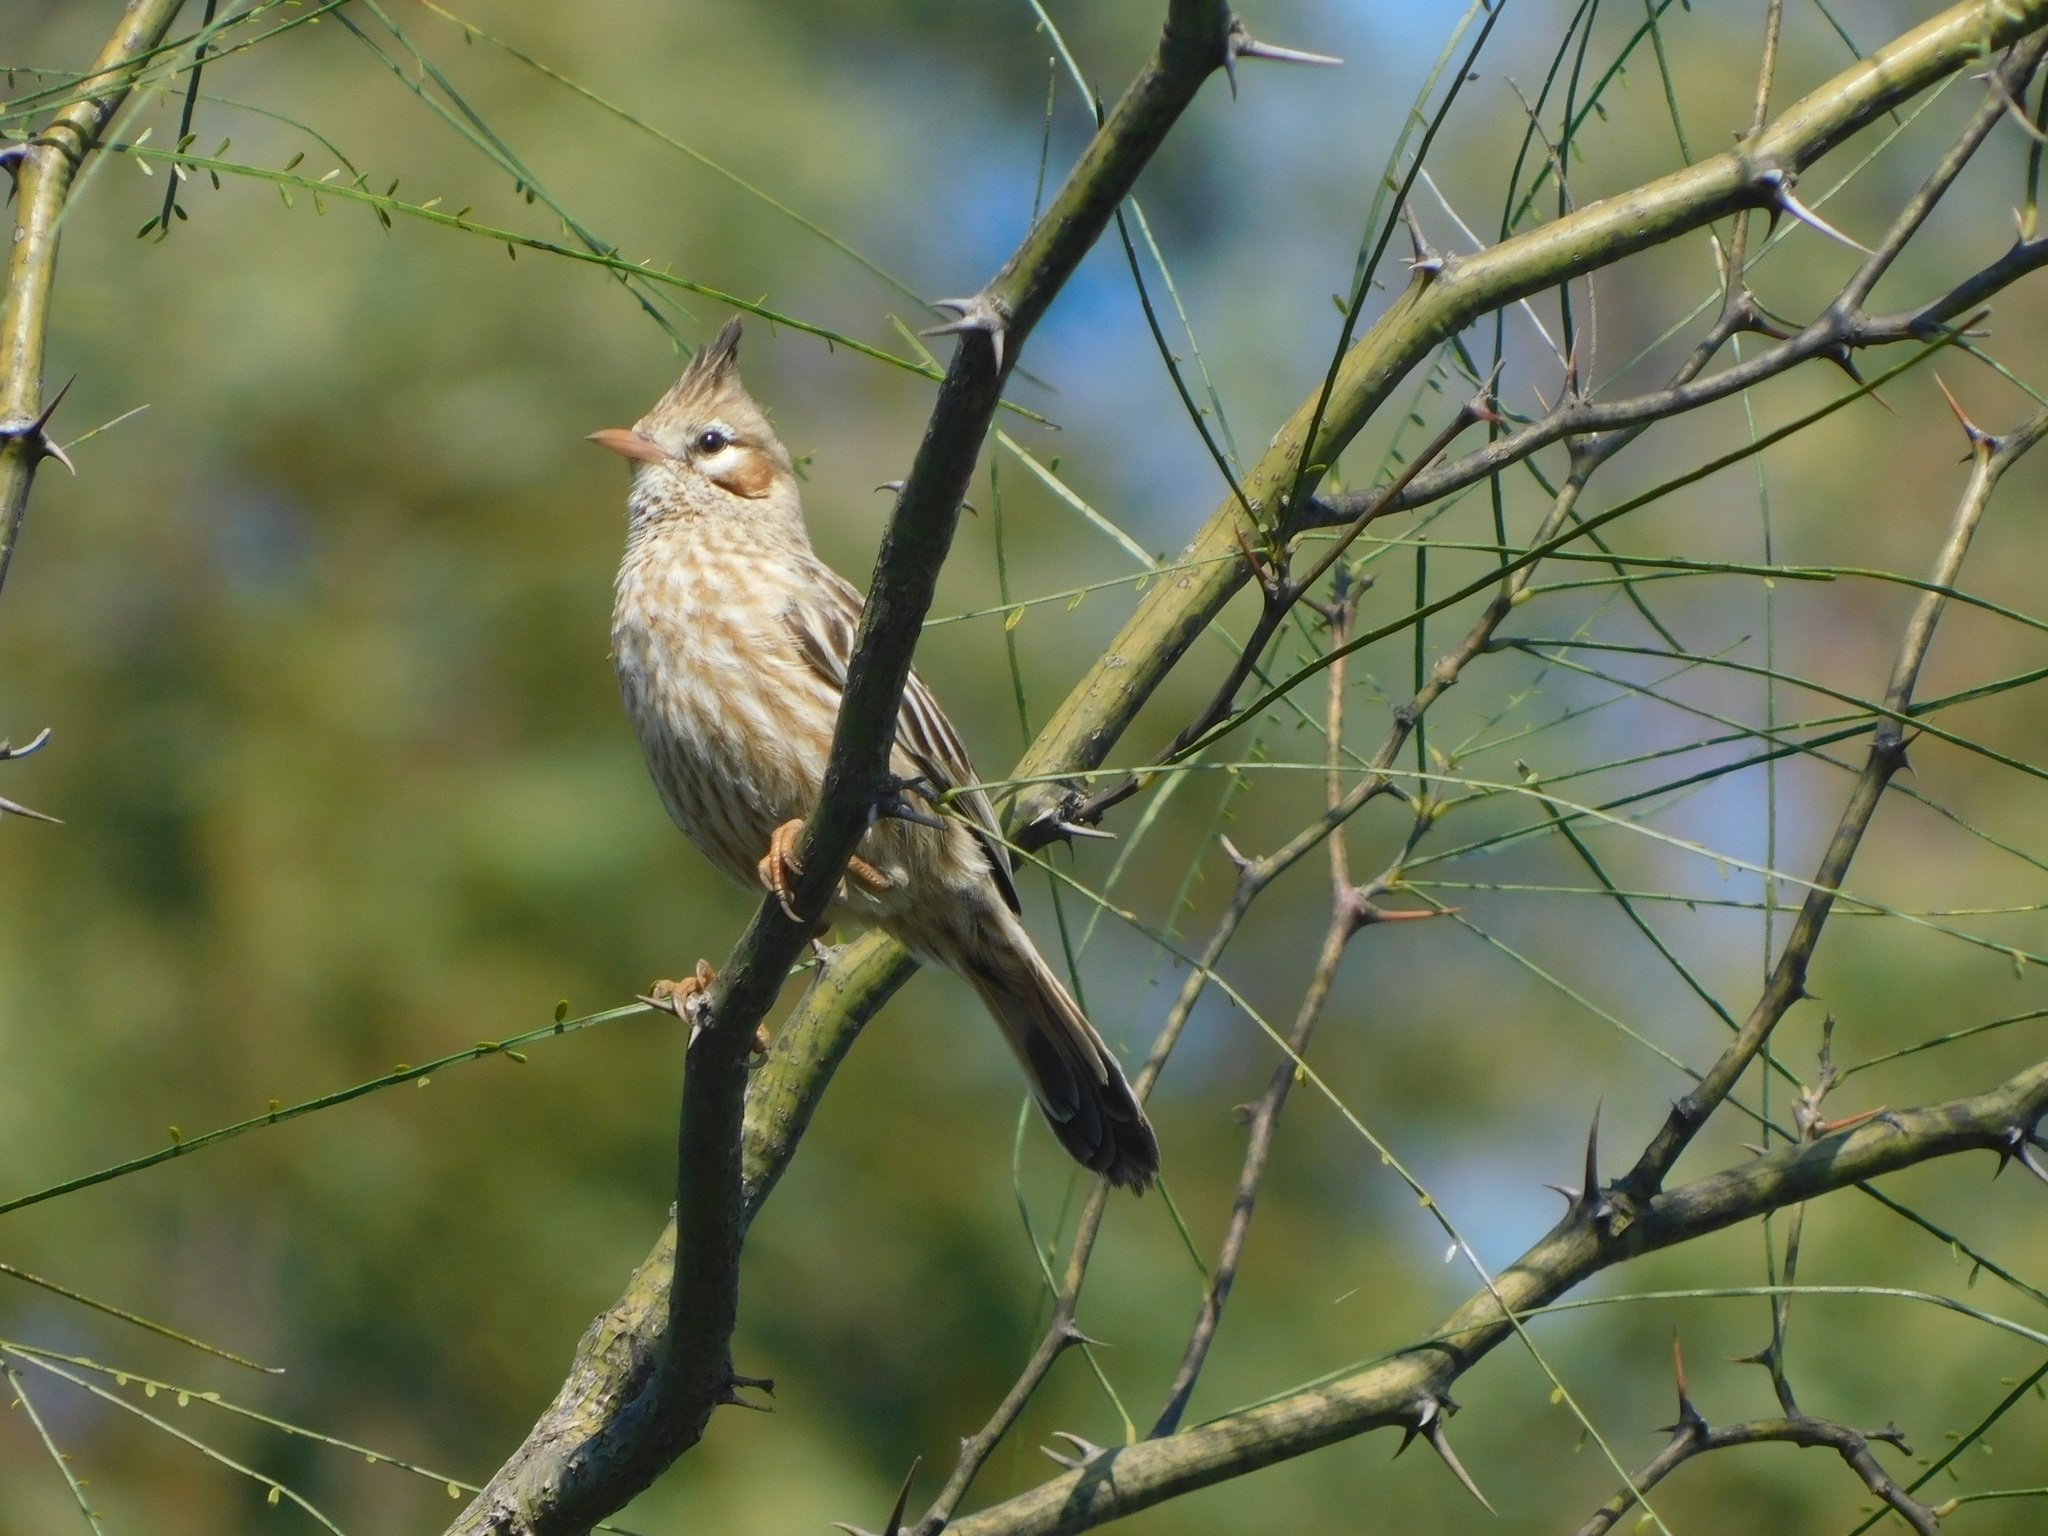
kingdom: Animalia
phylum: Chordata
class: Aves
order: Passeriformes
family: Furnariidae
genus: Coryphistera
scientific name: Coryphistera alaudina
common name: Lark-like brushrunner
